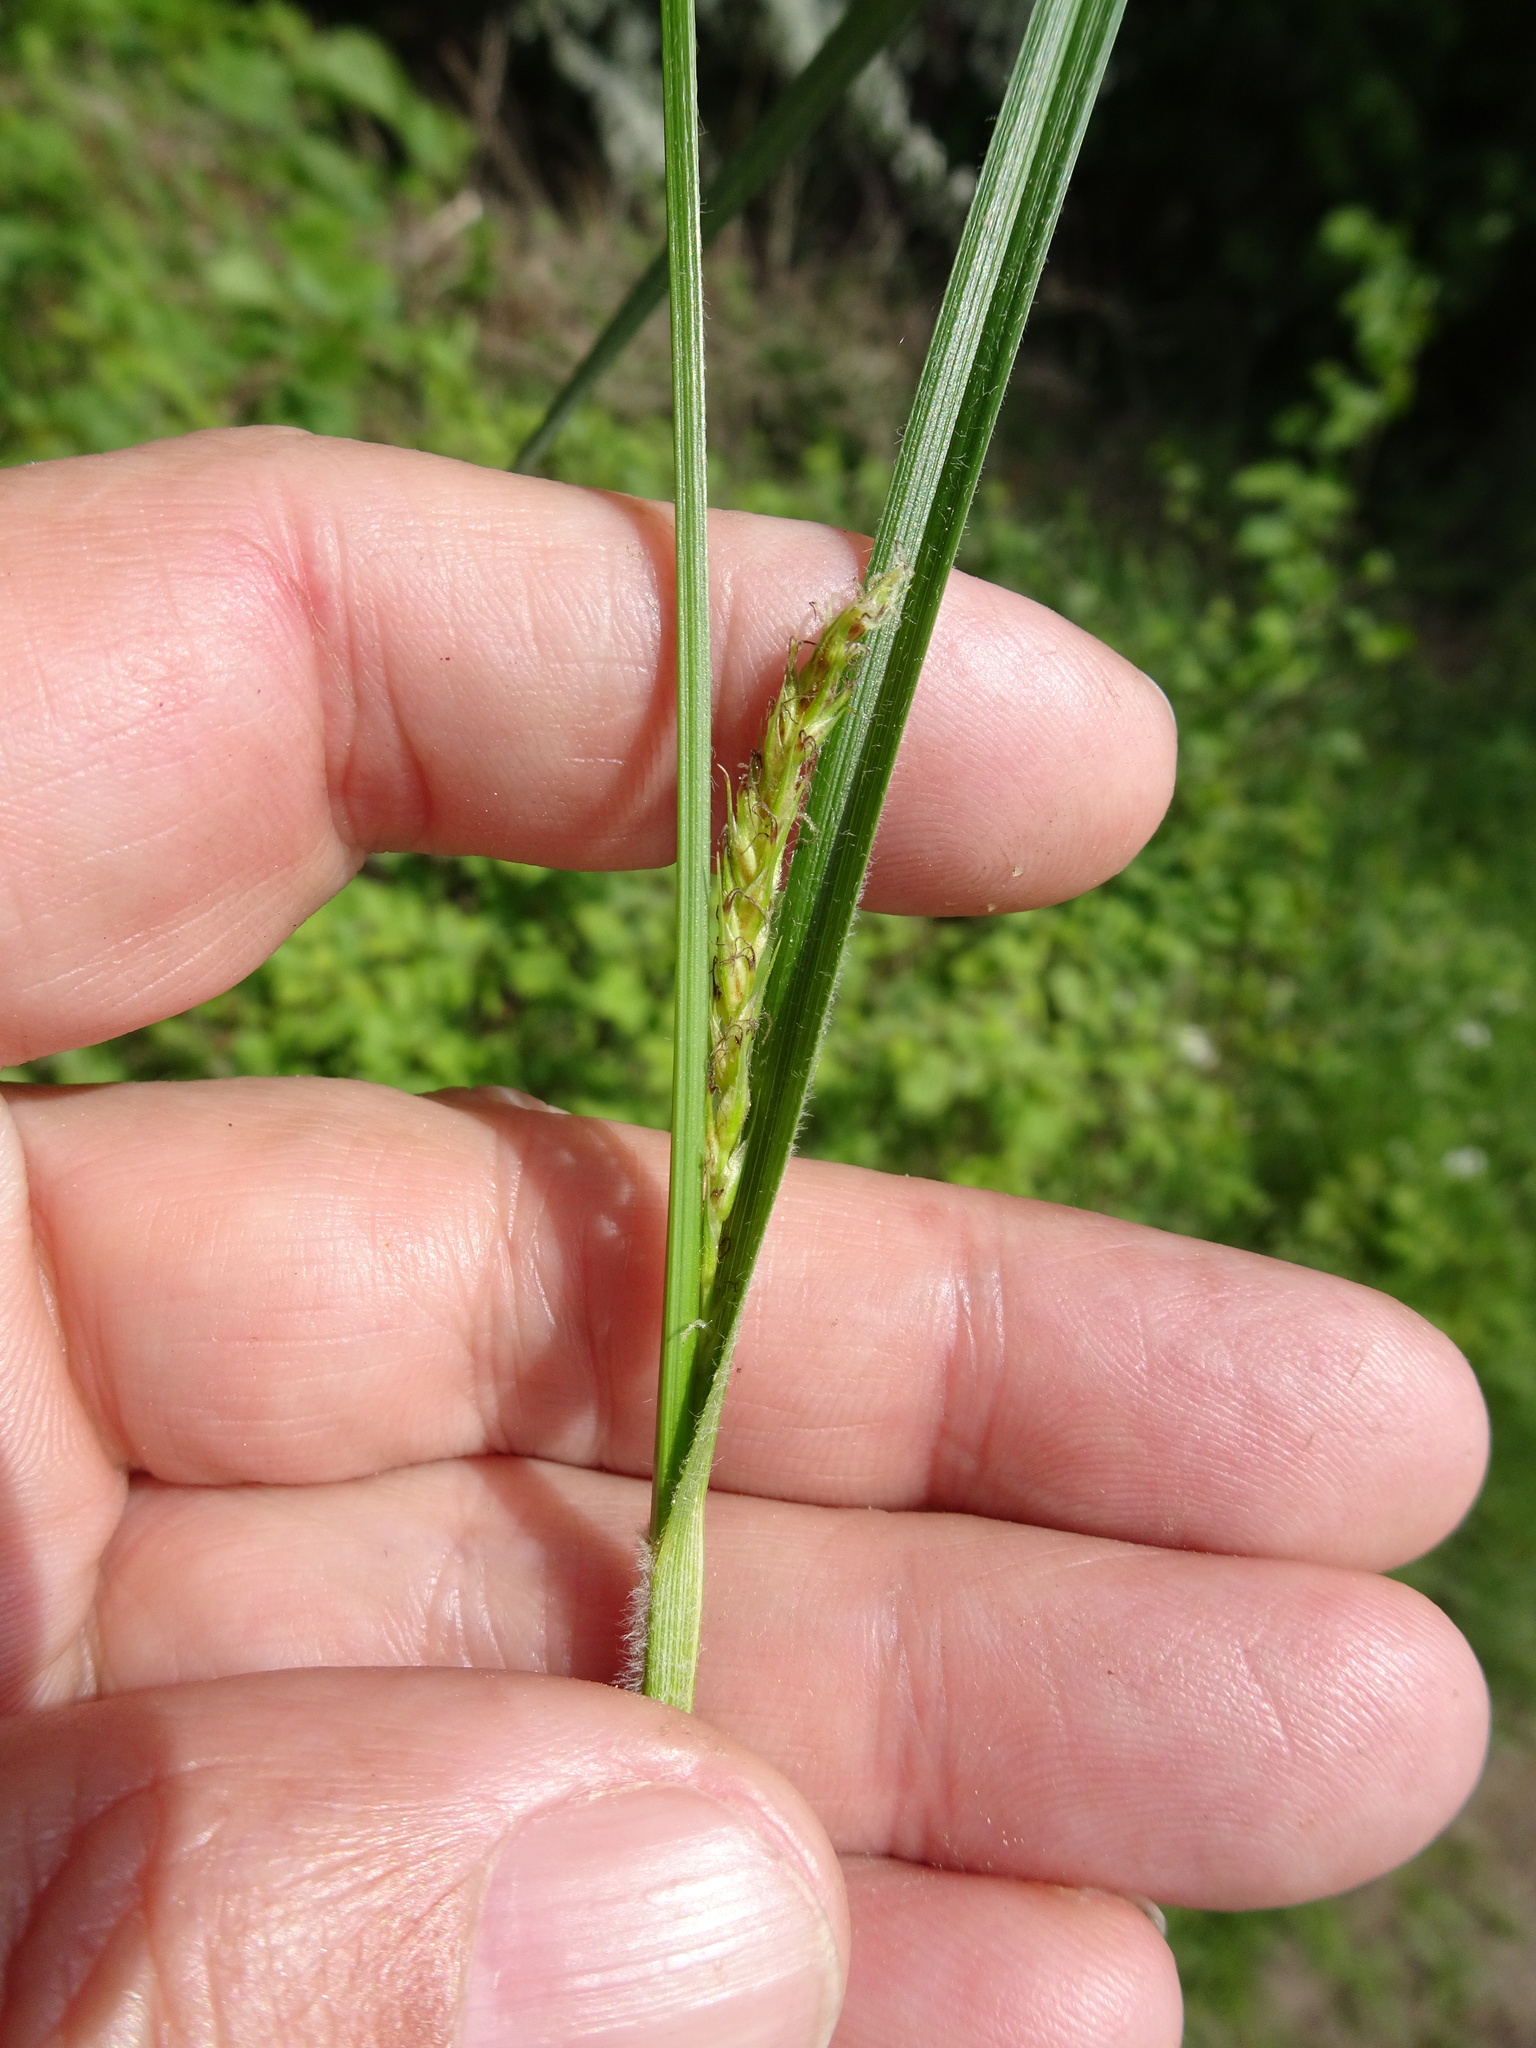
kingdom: Plantae
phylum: Tracheophyta
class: Liliopsida
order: Poales
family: Cyperaceae
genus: Carex
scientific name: Carex hirta
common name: Hairy sedge
